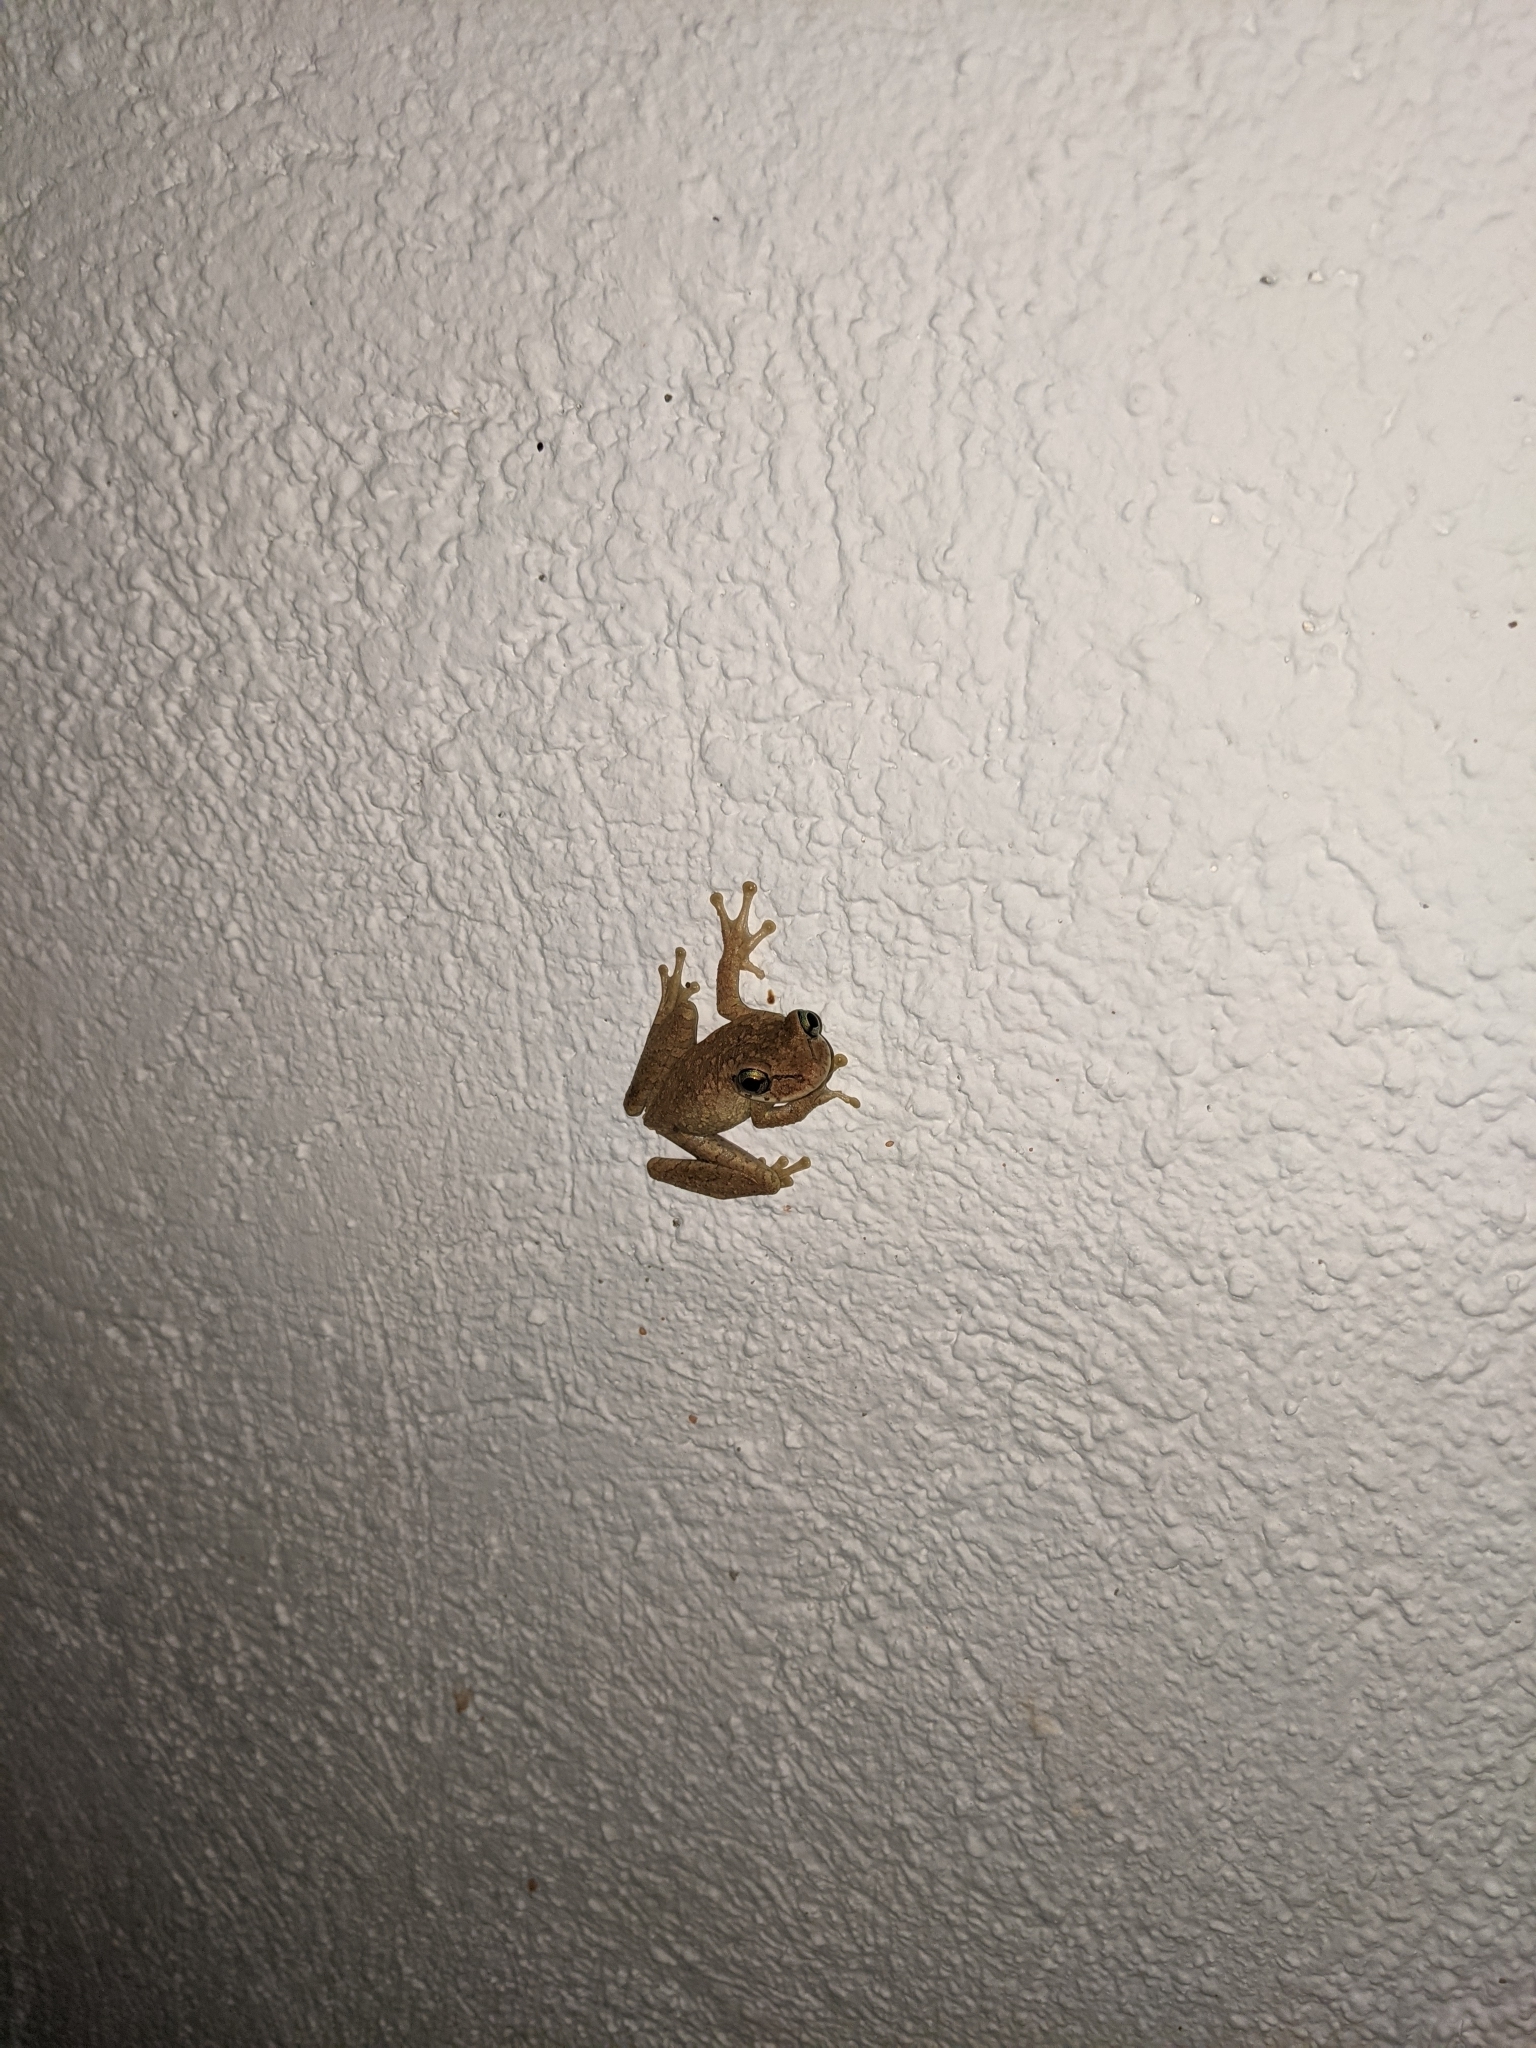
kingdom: Animalia
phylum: Chordata
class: Amphibia
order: Anura
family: Hylidae
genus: Osteopilus
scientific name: Osteopilus dominicensis
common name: Hispaniolan common treefrog
